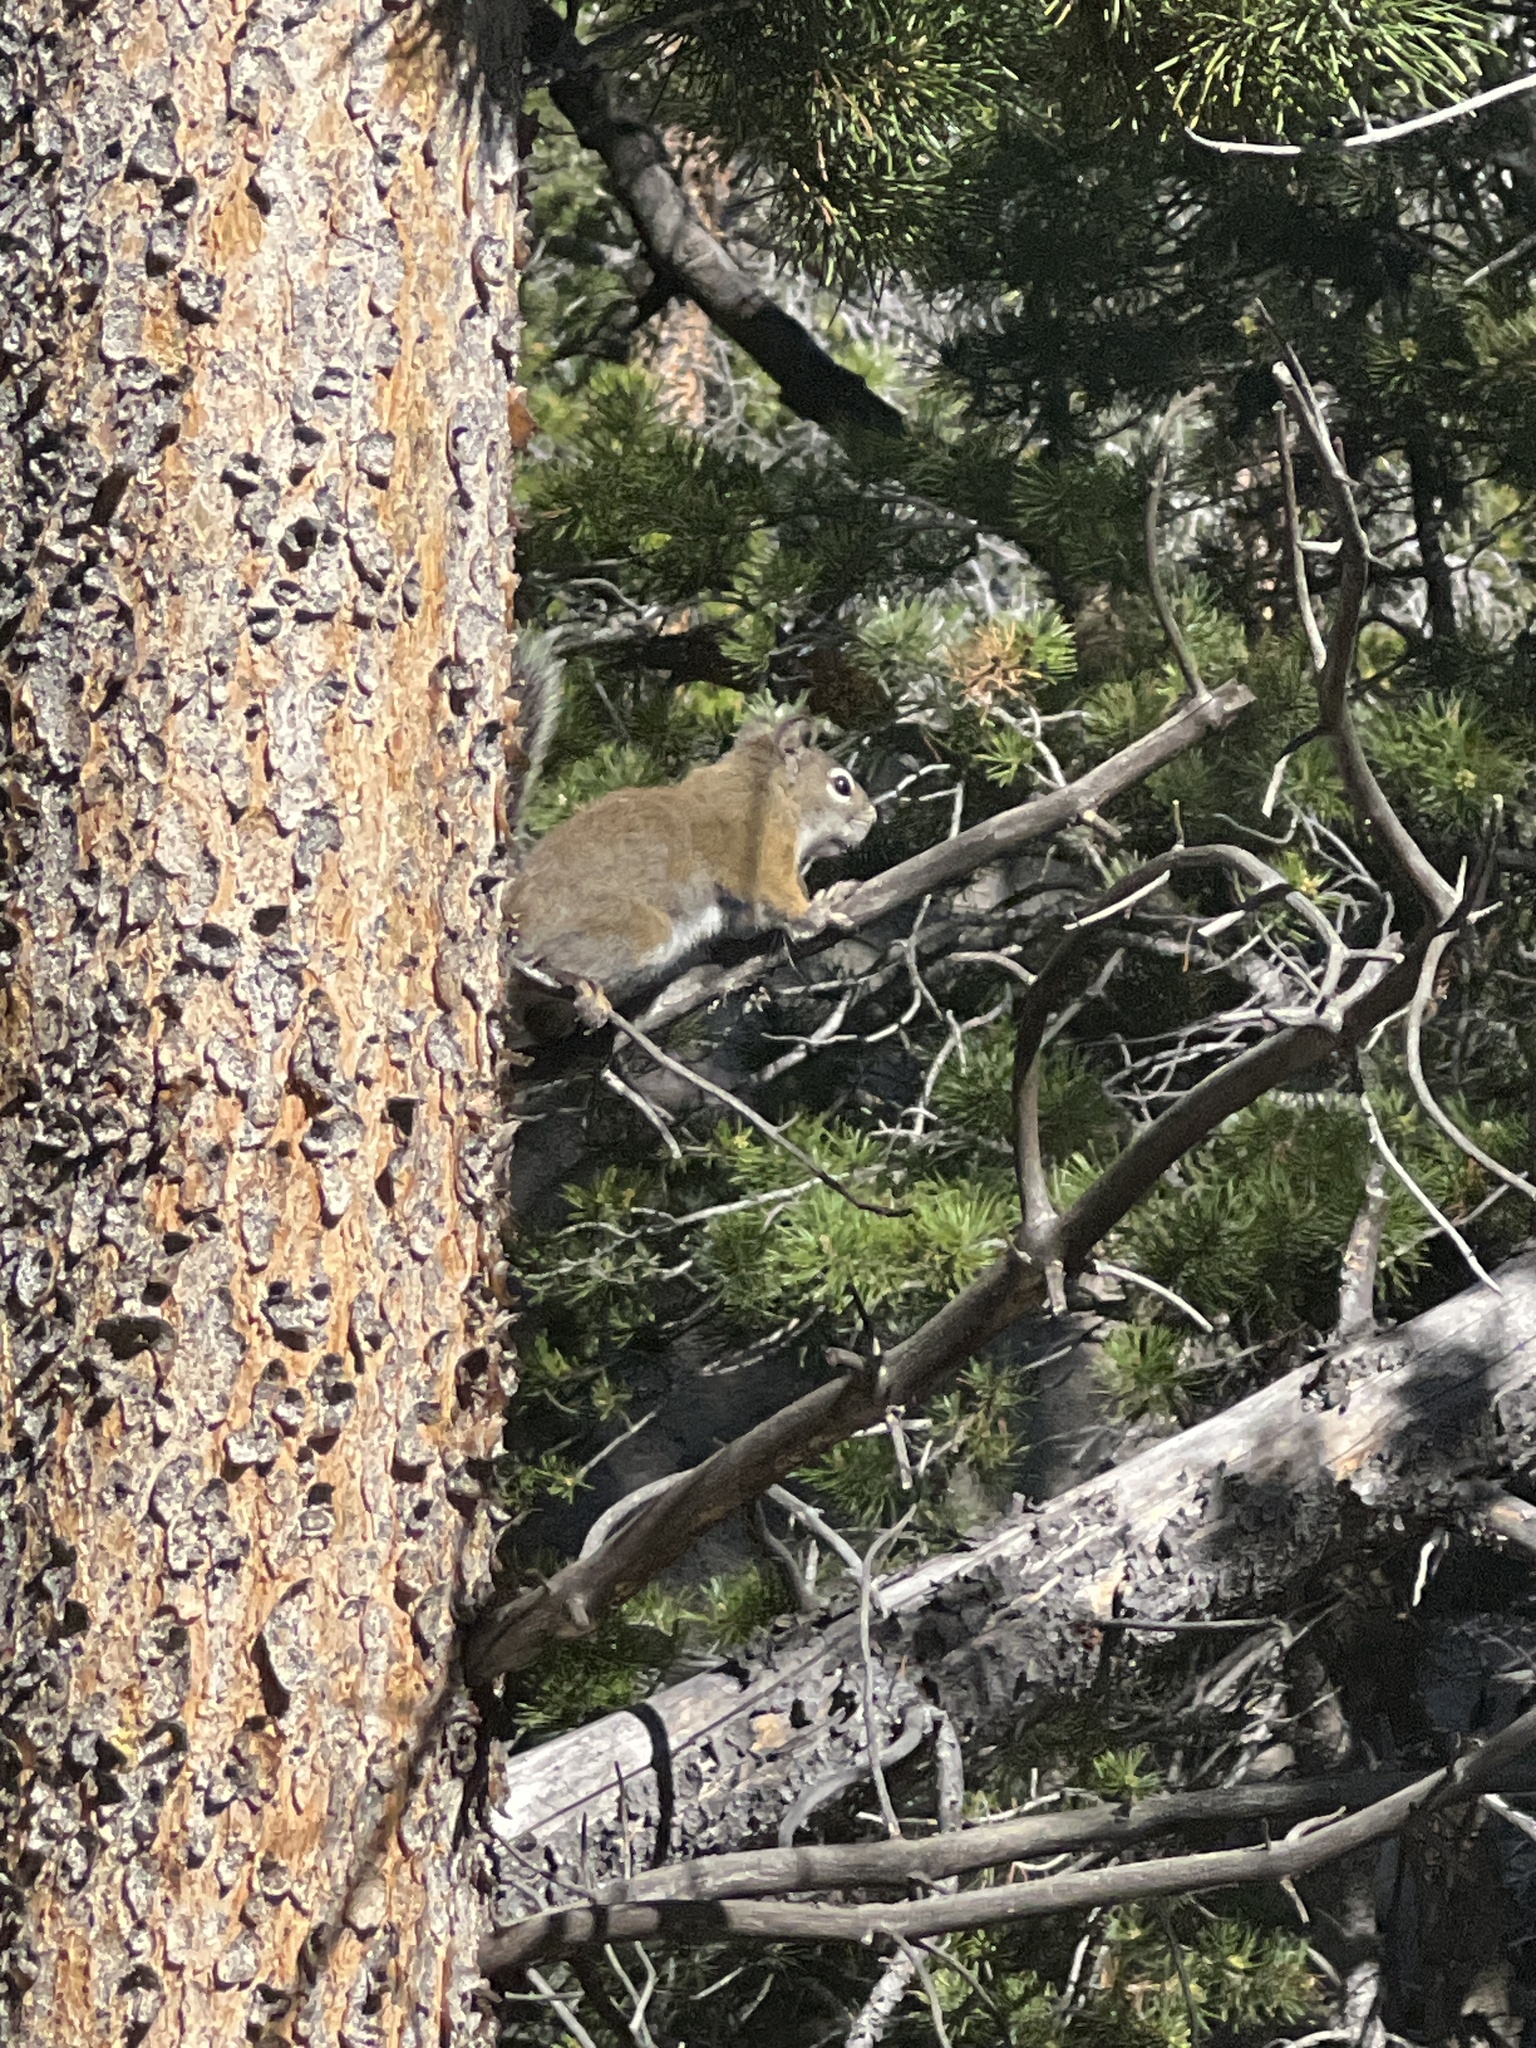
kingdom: Animalia
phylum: Chordata
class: Mammalia
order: Rodentia
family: Sciuridae
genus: Tamiasciurus
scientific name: Tamiasciurus hudsonicus
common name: Red squirrel
